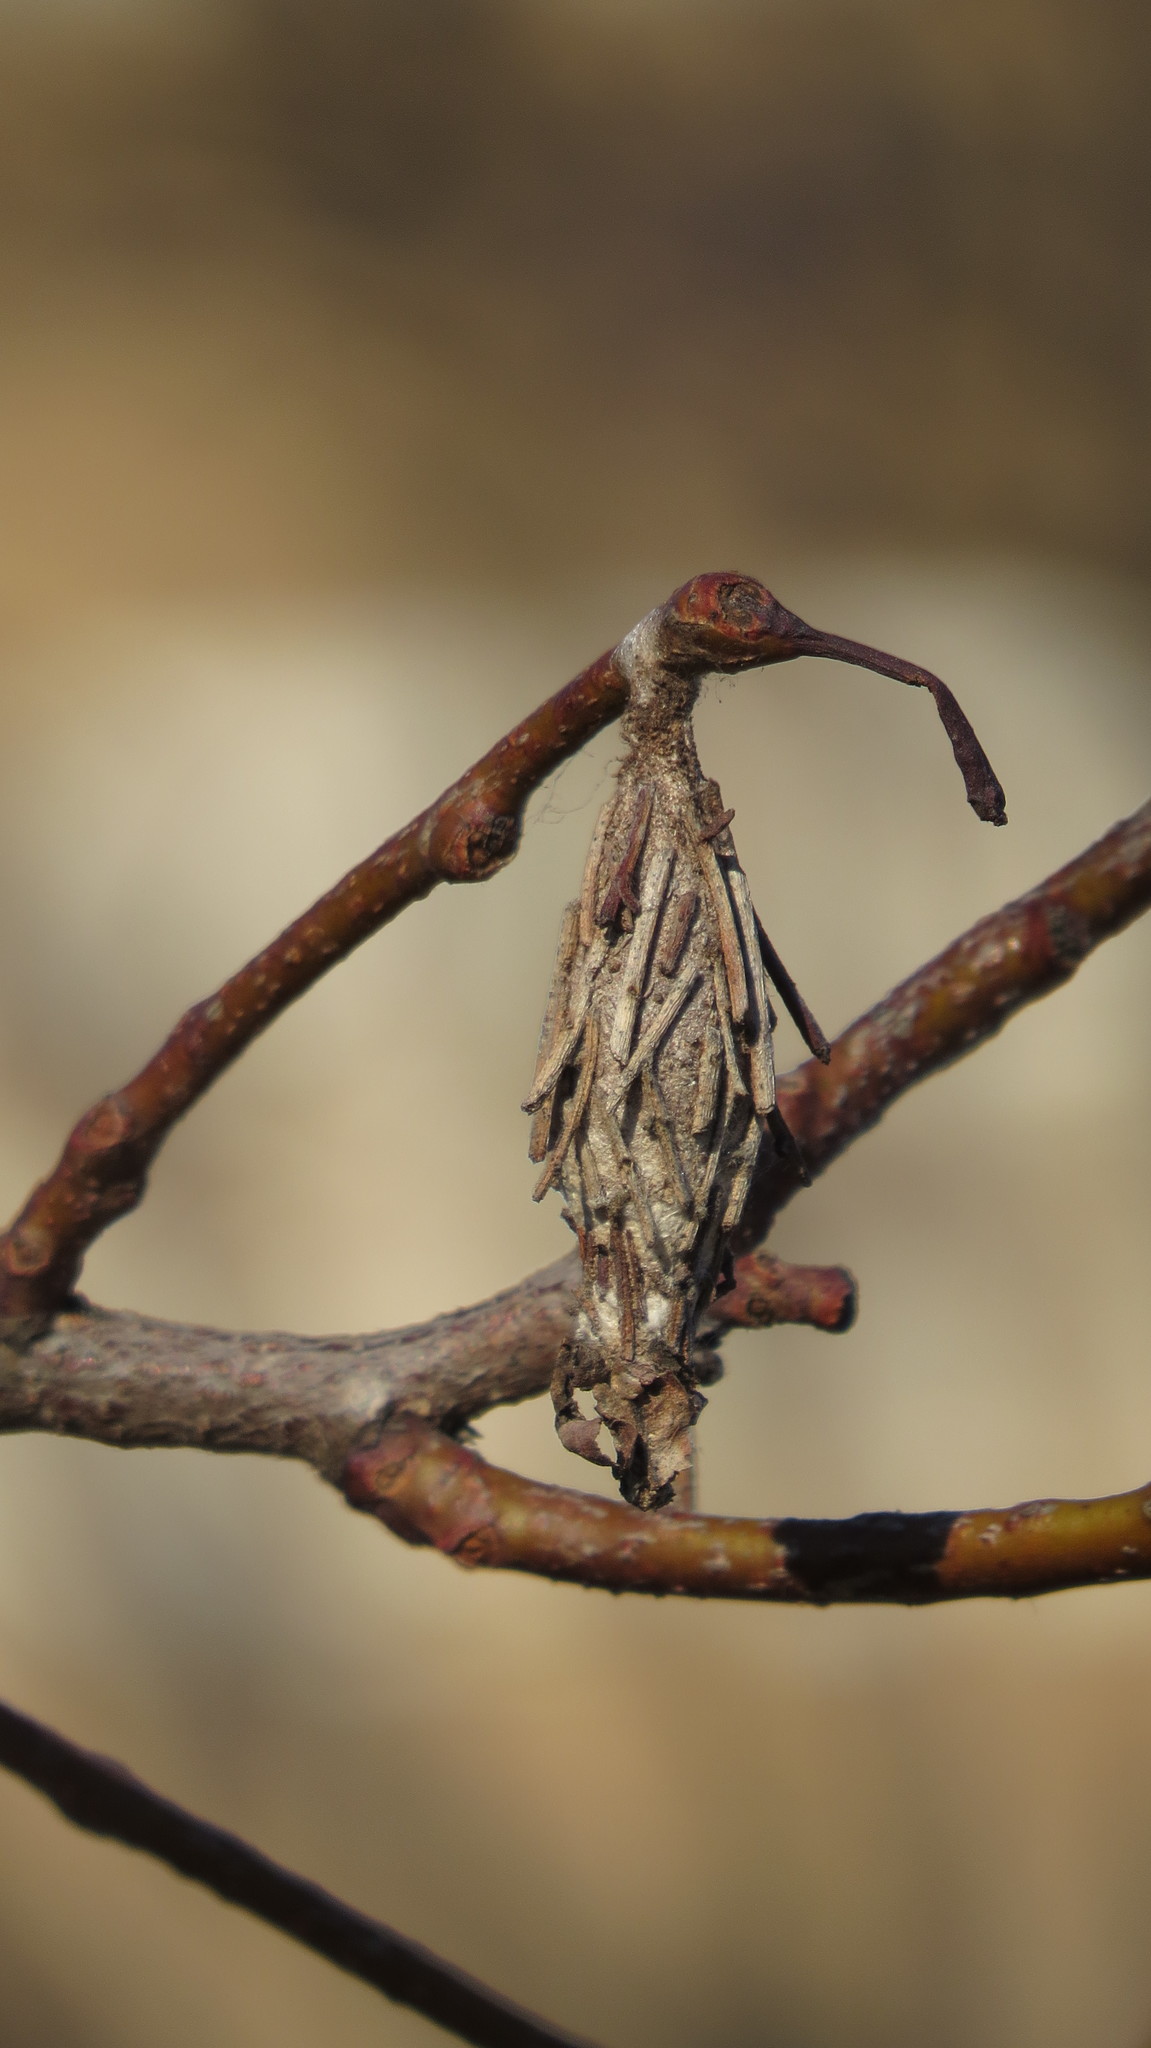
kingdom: Animalia
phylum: Arthropoda
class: Insecta
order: Lepidoptera
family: Psychidae
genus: Thyridopteryx
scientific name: Thyridopteryx ephemeraeformis
